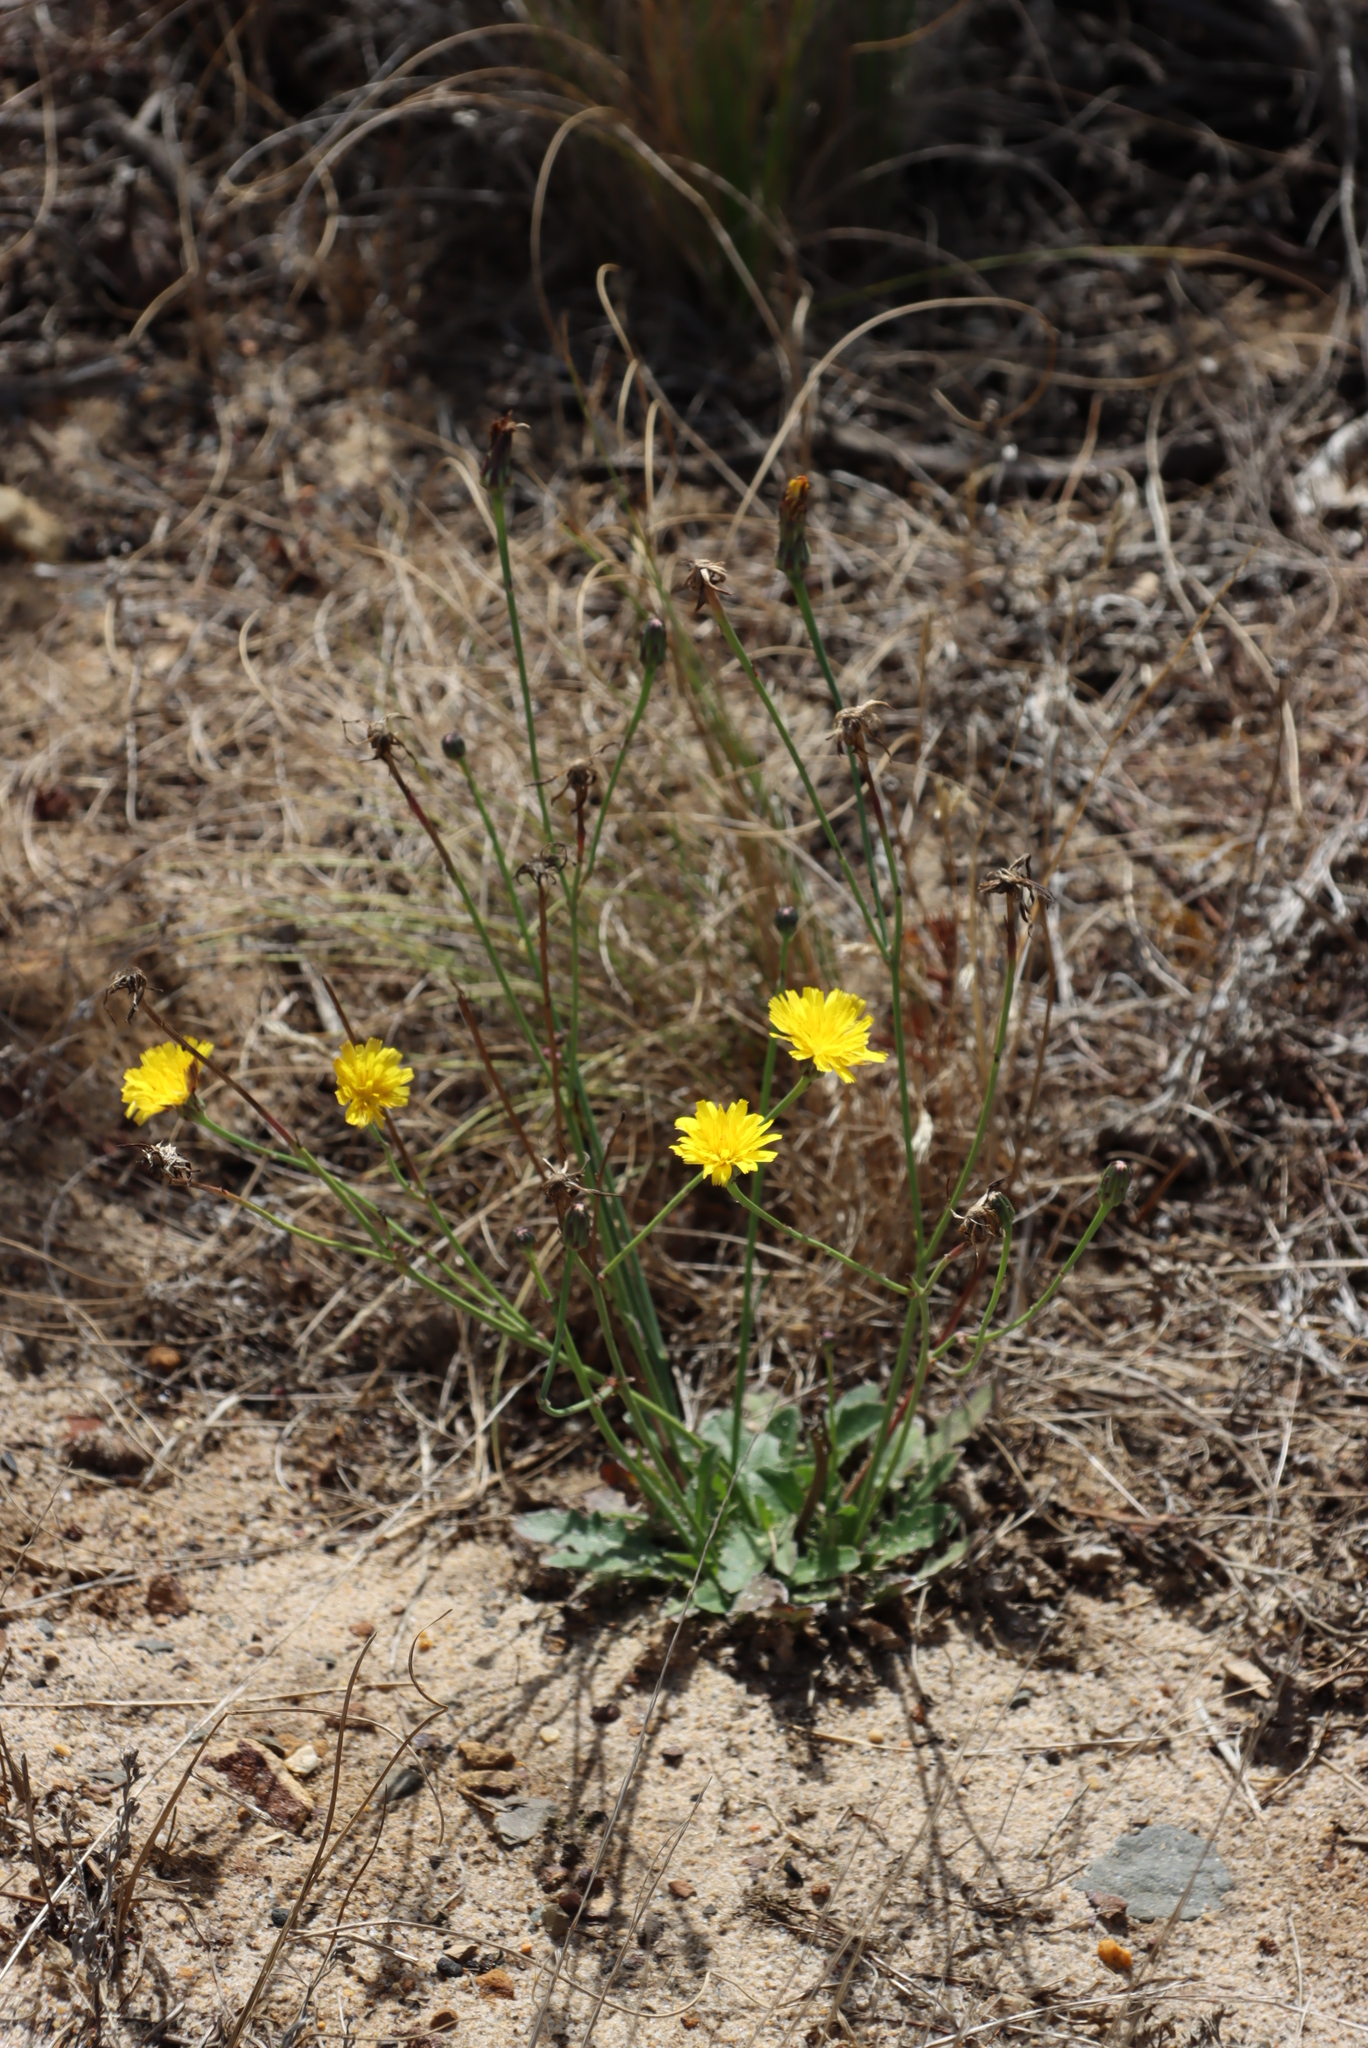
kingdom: Plantae
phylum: Tracheophyta
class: Magnoliopsida
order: Asterales
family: Asteraceae
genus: Hypochaeris
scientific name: Hypochaeris radicata
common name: Flatweed
